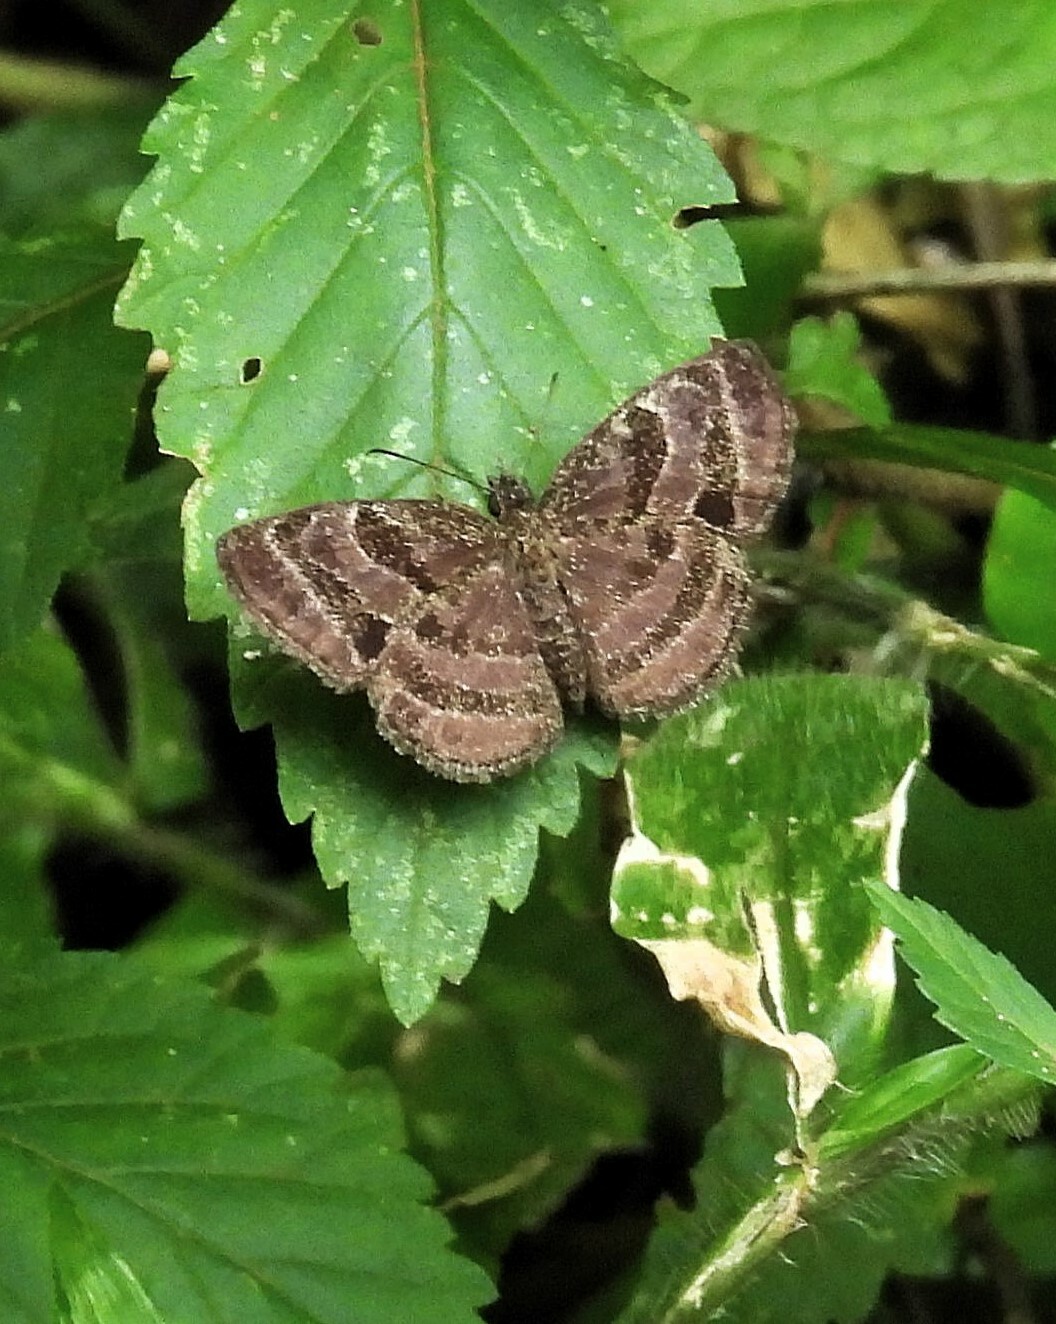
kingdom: Animalia
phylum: Arthropoda
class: Insecta
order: Lepidoptera
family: Hesperiidae
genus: Trina
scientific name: Trina geometrina
